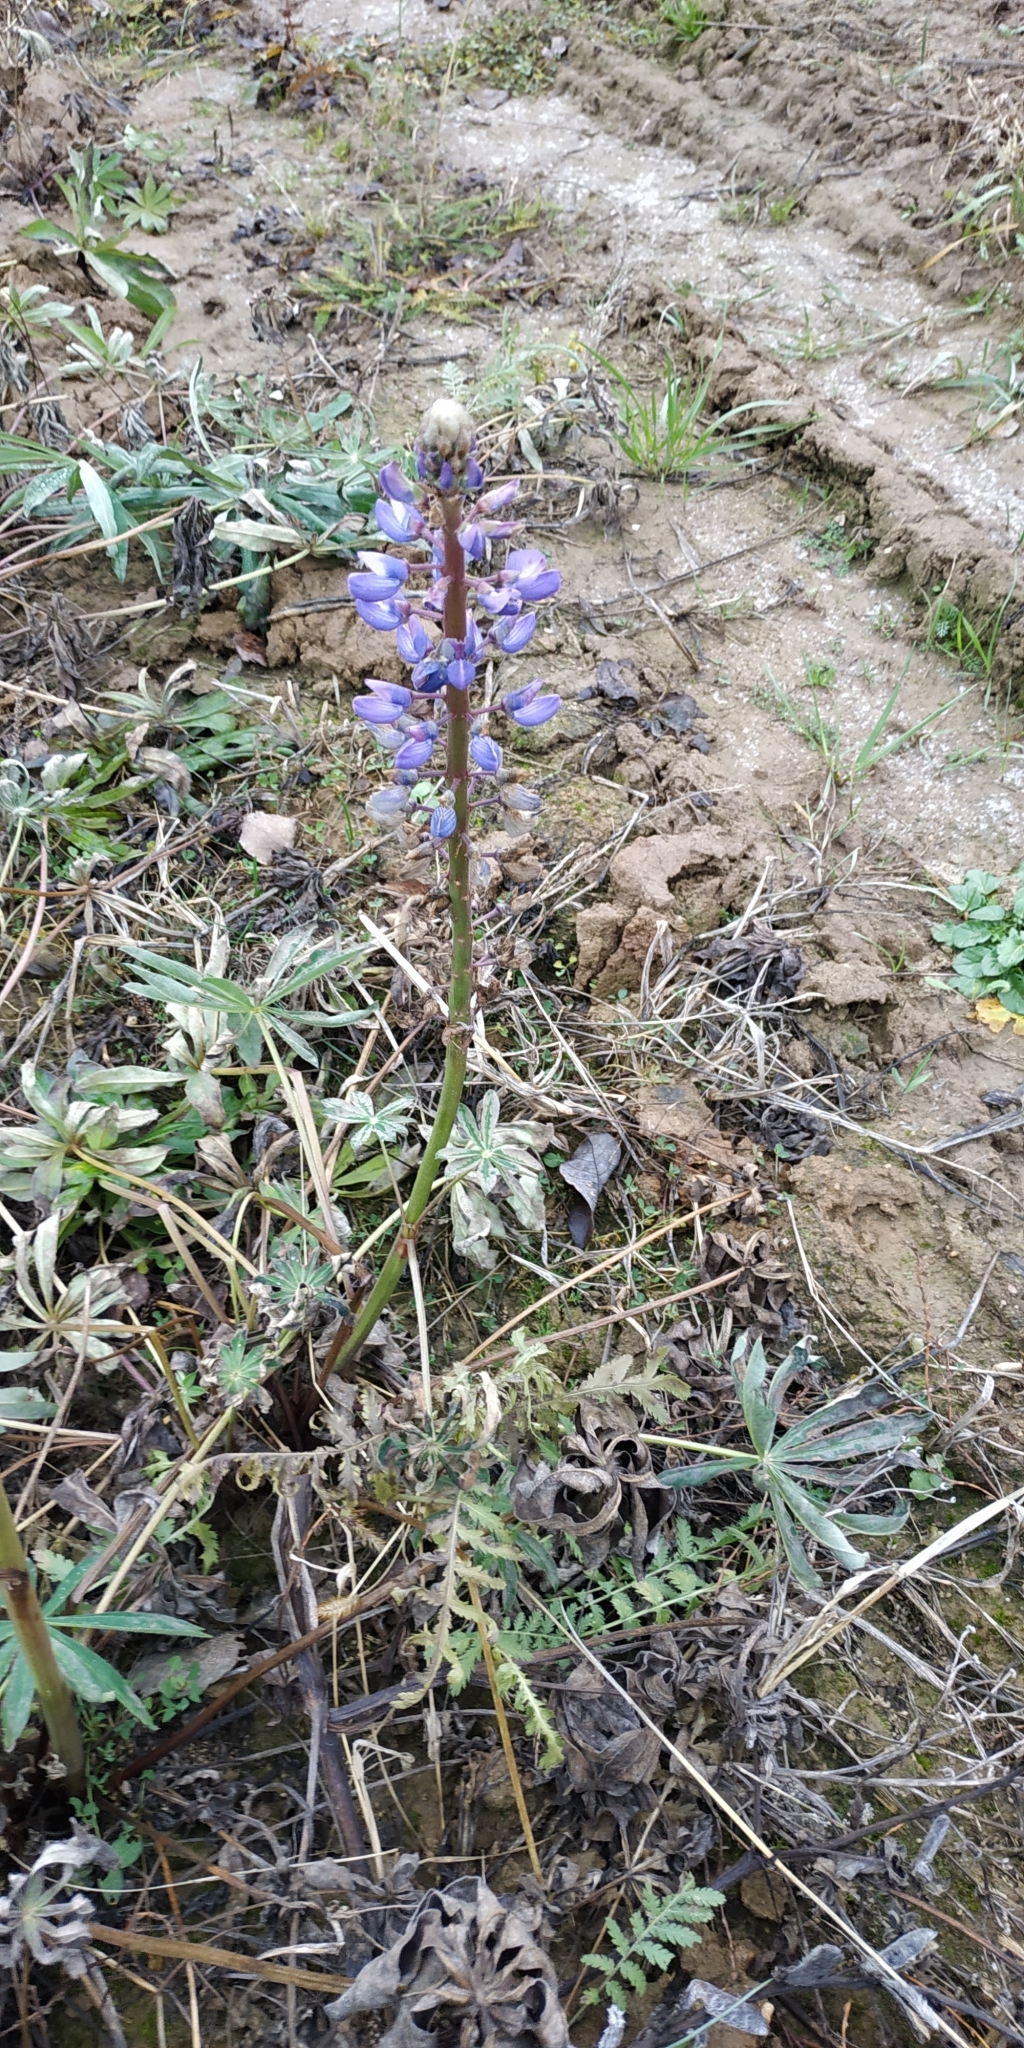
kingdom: Plantae
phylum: Tracheophyta
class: Magnoliopsida
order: Fabales
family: Fabaceae
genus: Lupinus
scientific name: Lupinus polyphyllus
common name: Garden lupin
